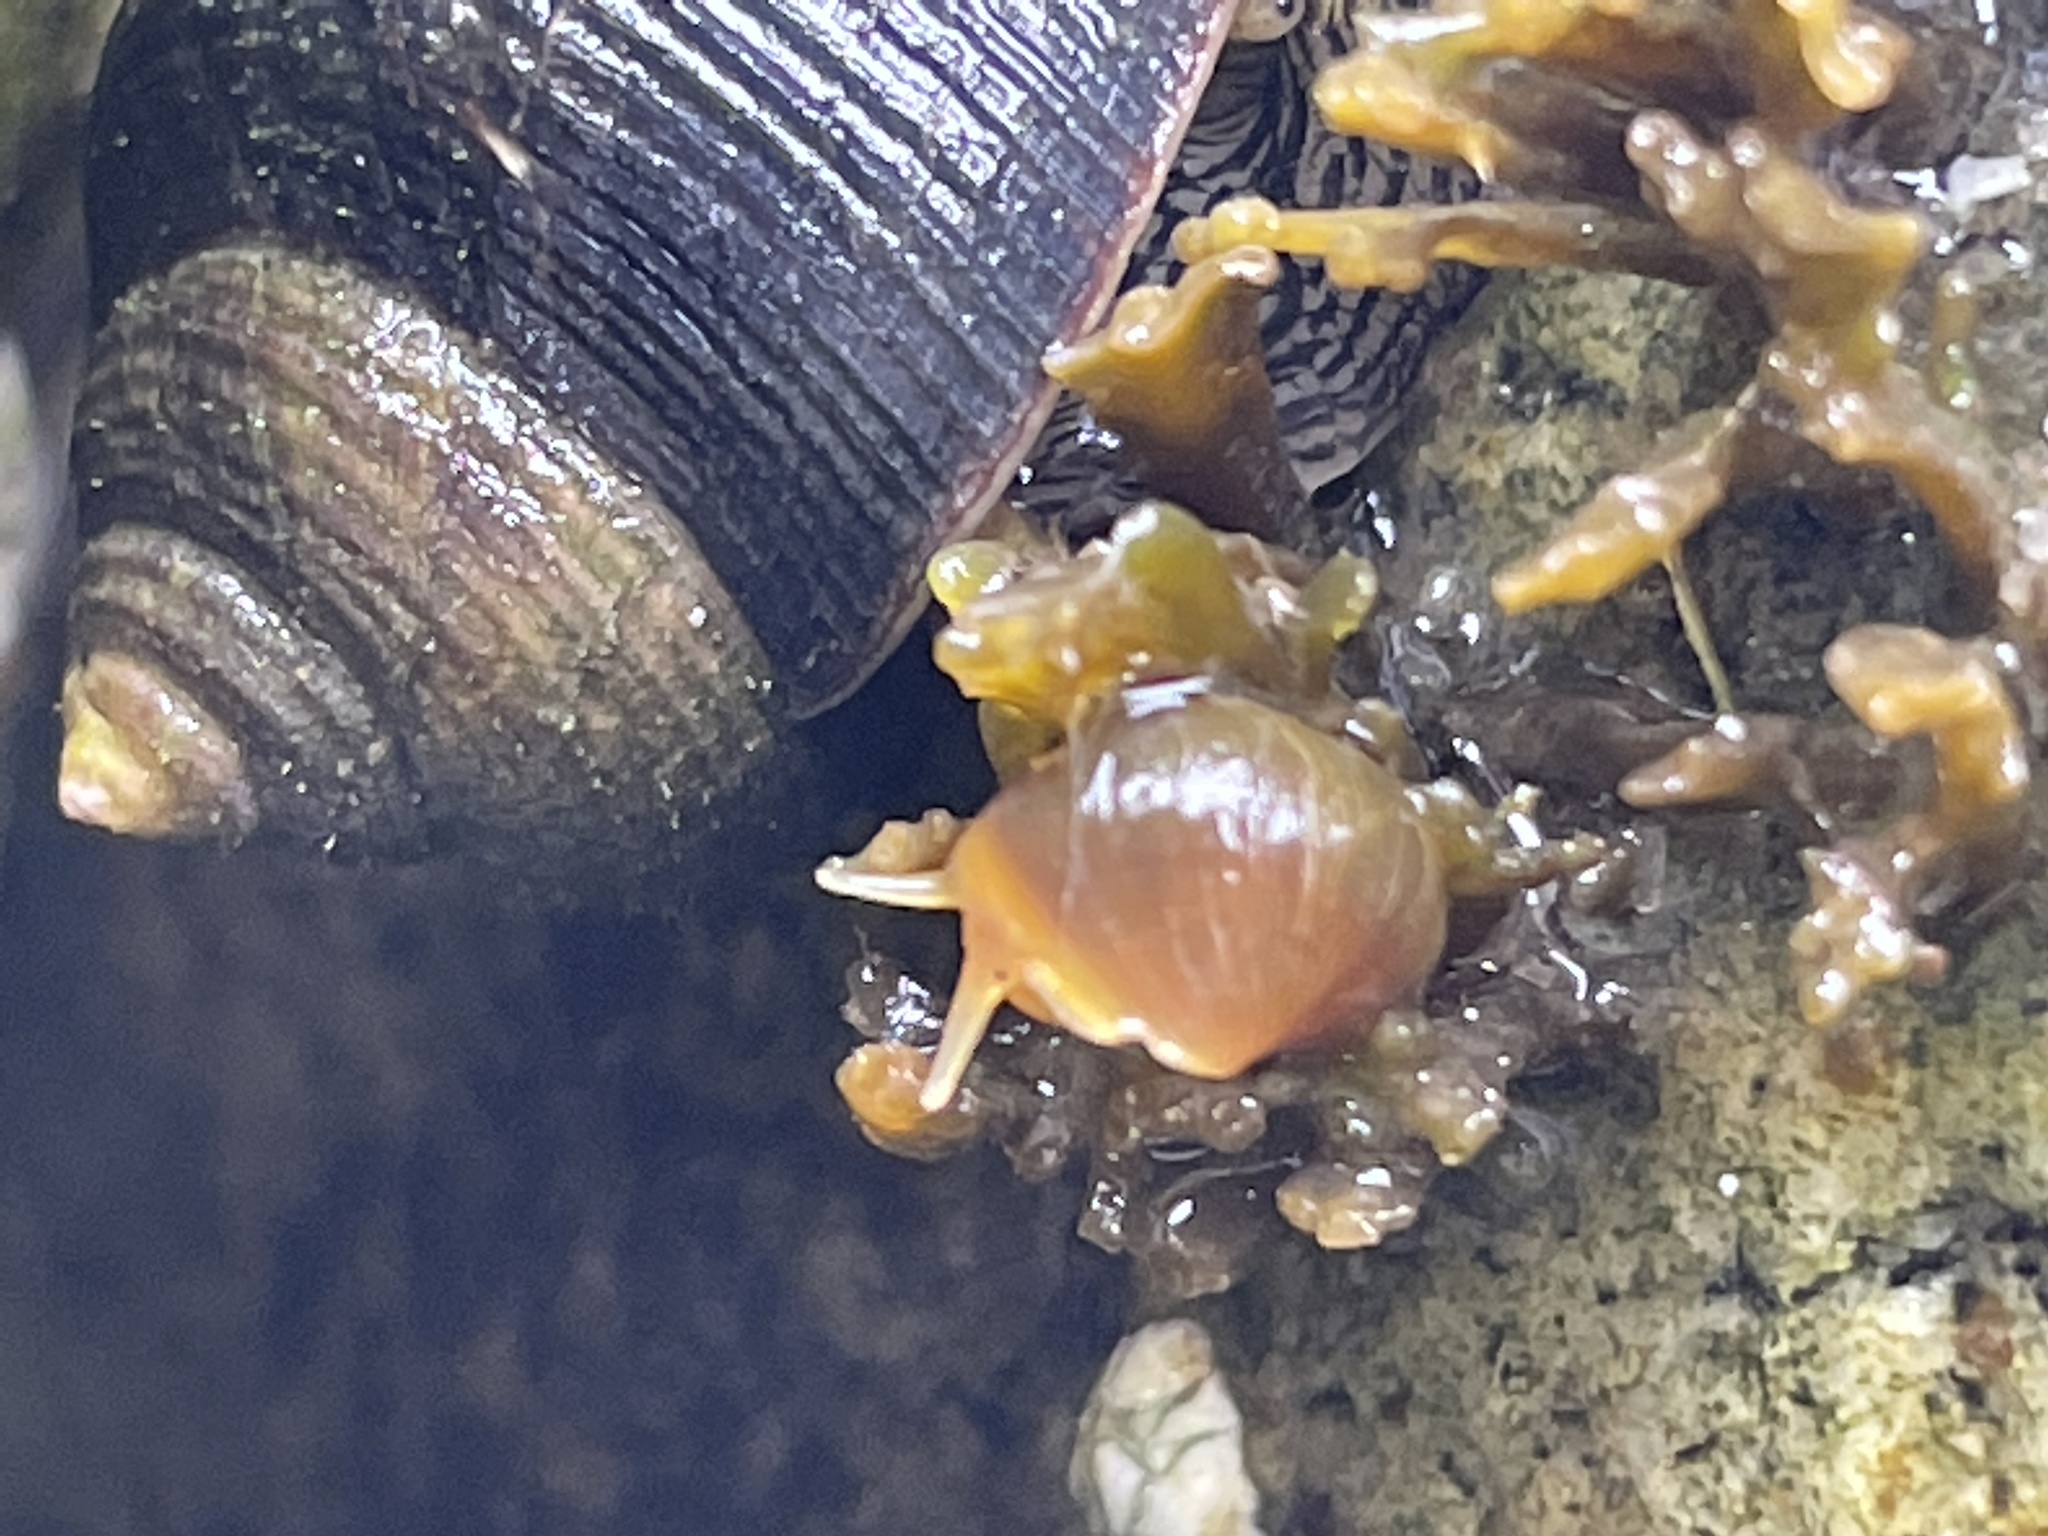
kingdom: Animalia
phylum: Mollusca
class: Gastropoda
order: Littorinimorpha
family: Littorinidae
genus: Littorina
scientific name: Littorina obtusata
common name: Flat periwinkle
